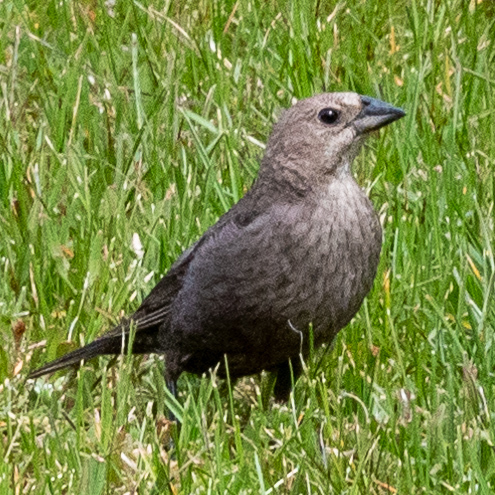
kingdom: Animalia
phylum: Chordata
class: Aves
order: Passeriformes
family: Icteridae
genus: Molothrus
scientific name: Molothrus ater
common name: Brown-headed cowbird
